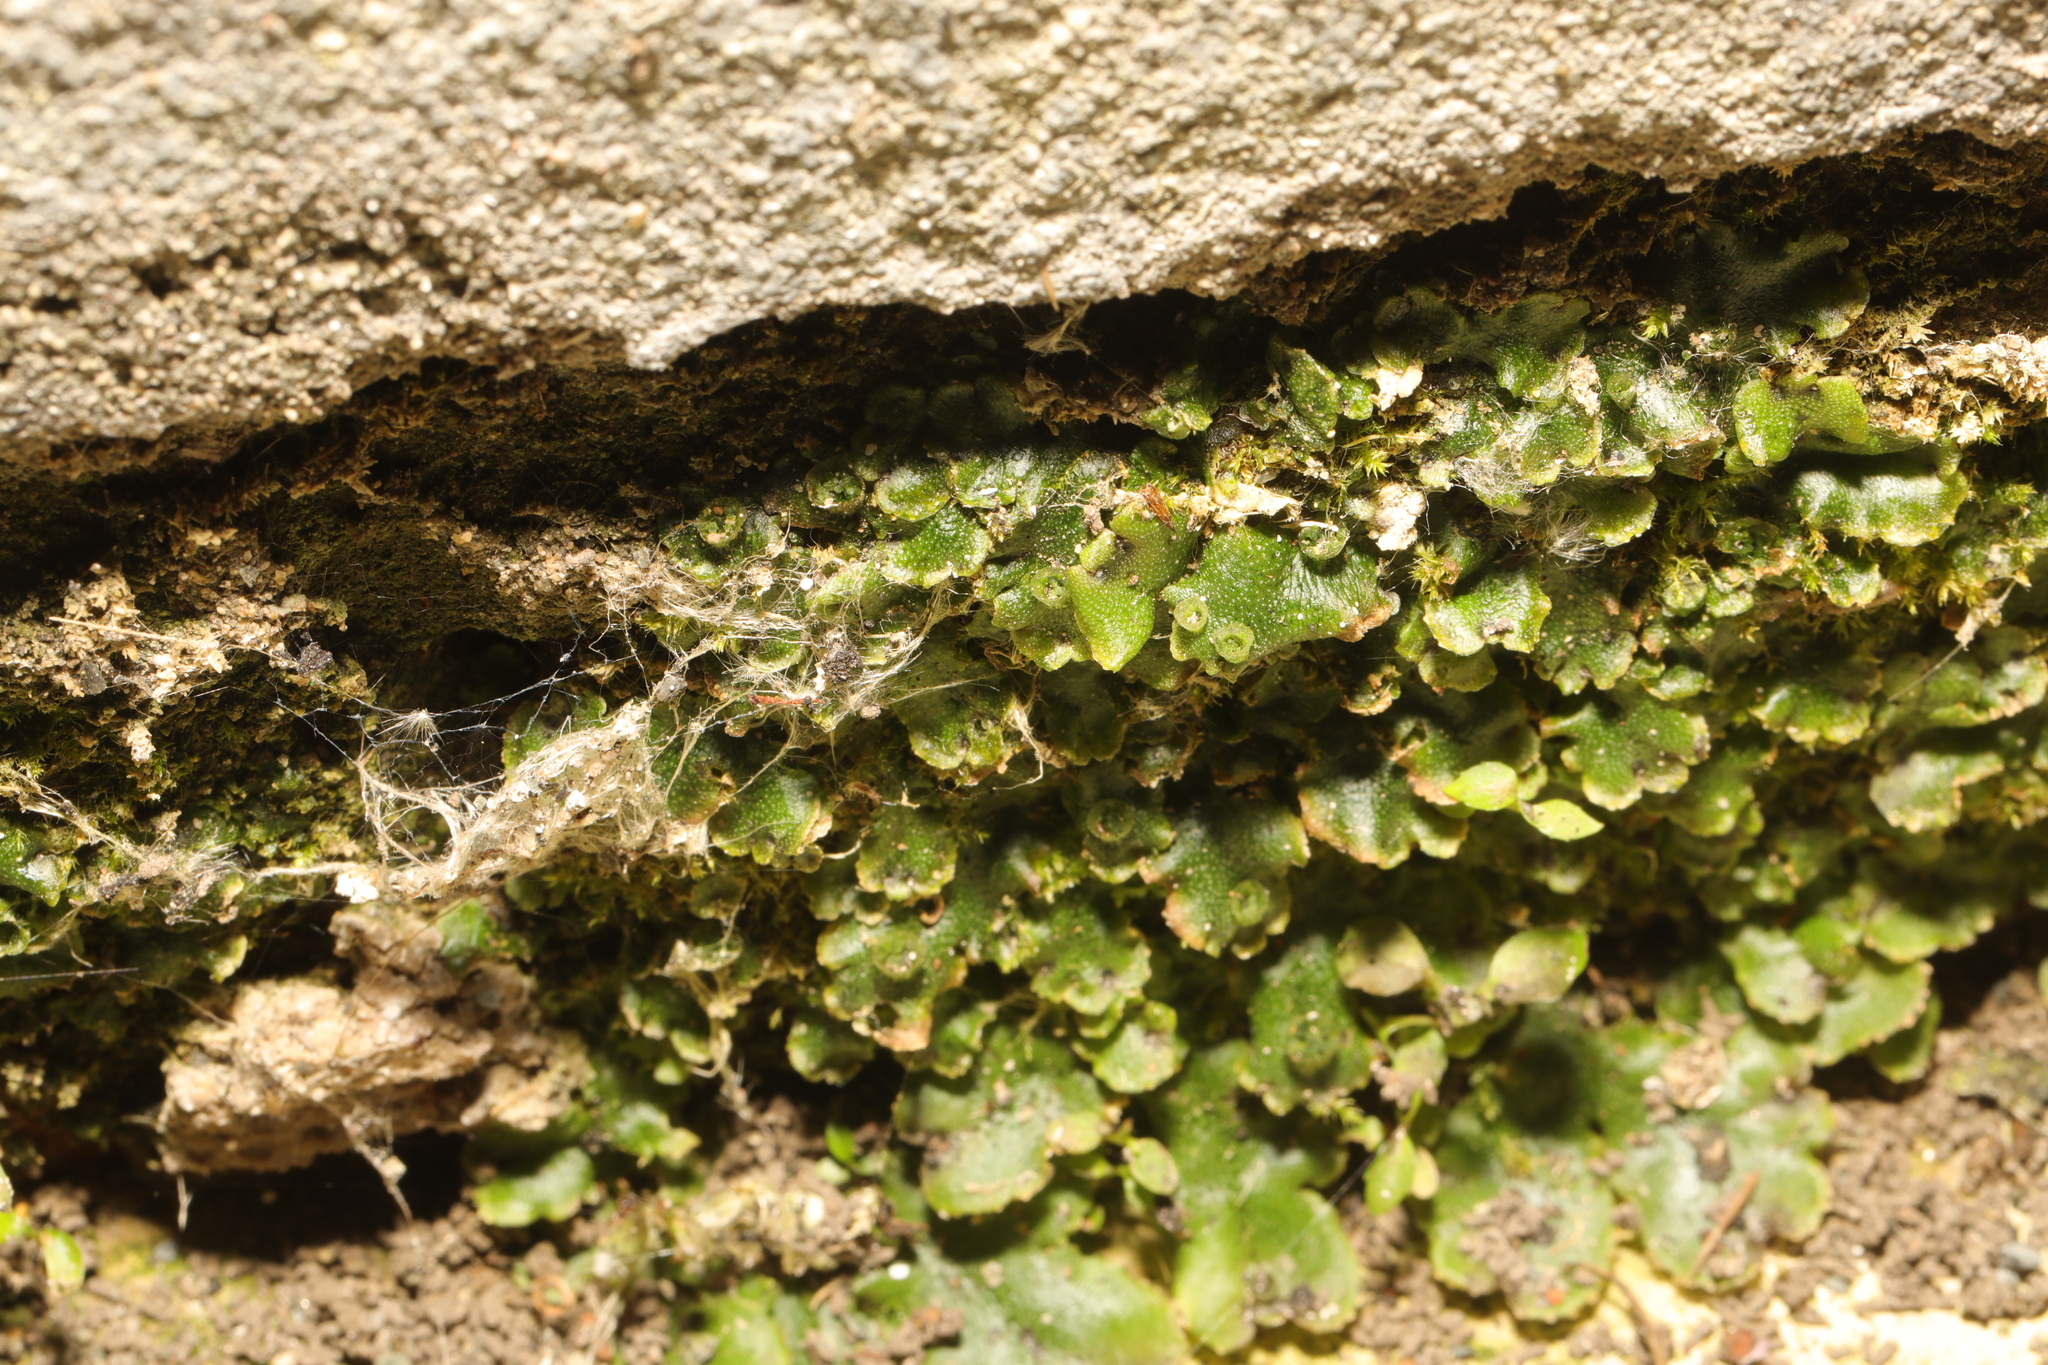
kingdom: Plantae
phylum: Marchantiophyta
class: Marchantiopsida
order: Marchantiales
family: Marchantiaceae
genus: Marchantia
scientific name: Marchantia polymorpha
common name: Common liverwort
